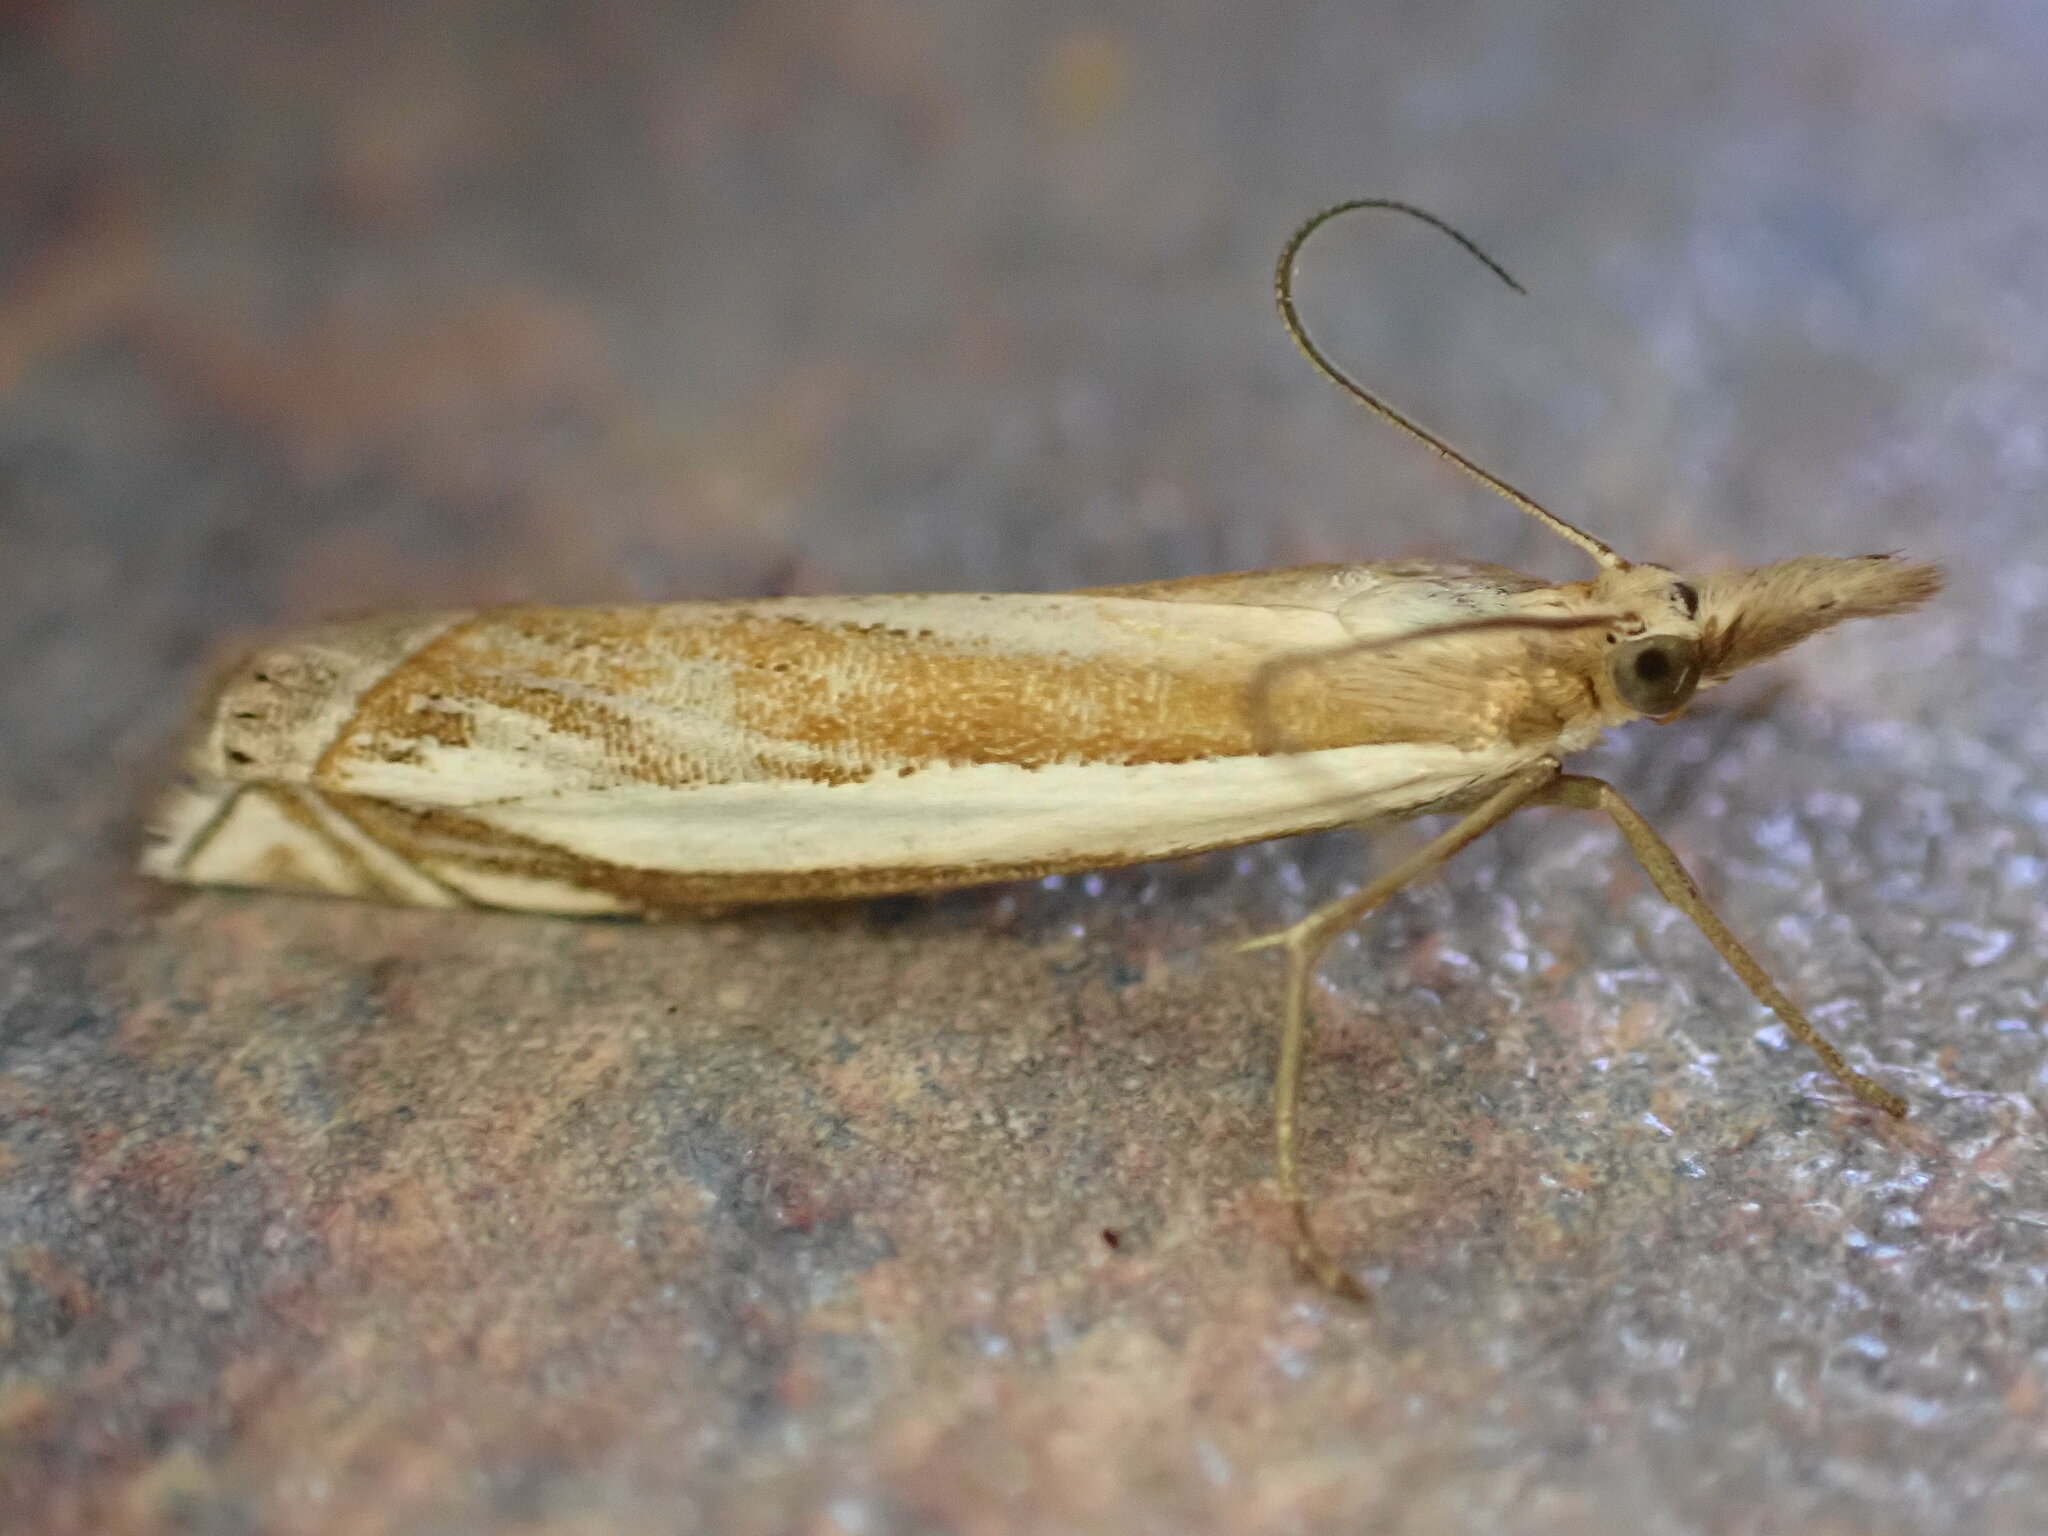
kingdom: Animalia
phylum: Arthropoda
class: Insecta
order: Lepidoptera
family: Crambidae
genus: Crambus
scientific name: Crambus pascuella
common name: Inlaid grass-veneer
